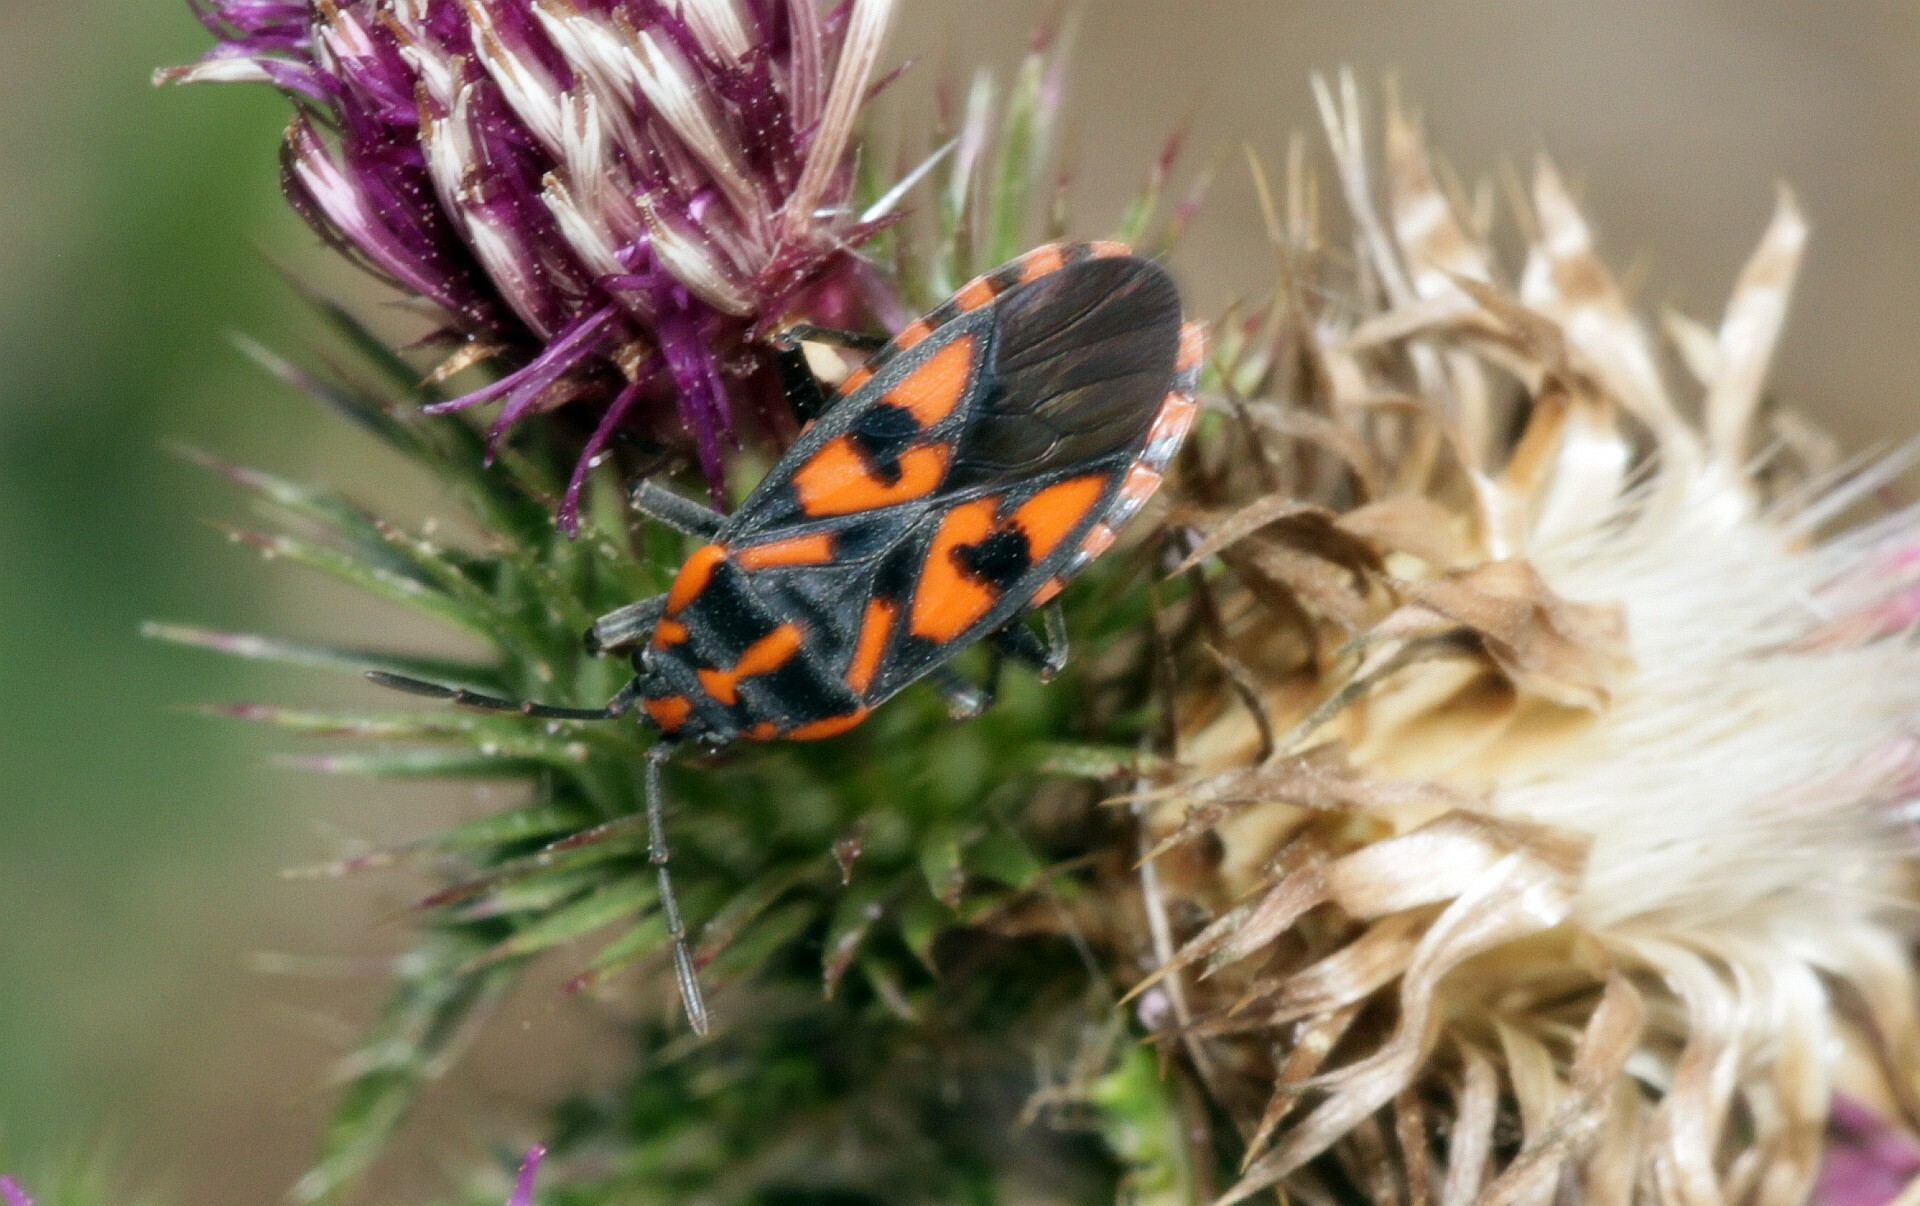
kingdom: Animalia
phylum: Arthropoda
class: Insecta
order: Hemiptera
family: Lygaeidae
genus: Spilostethus
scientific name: Spilostethus saxatilis
